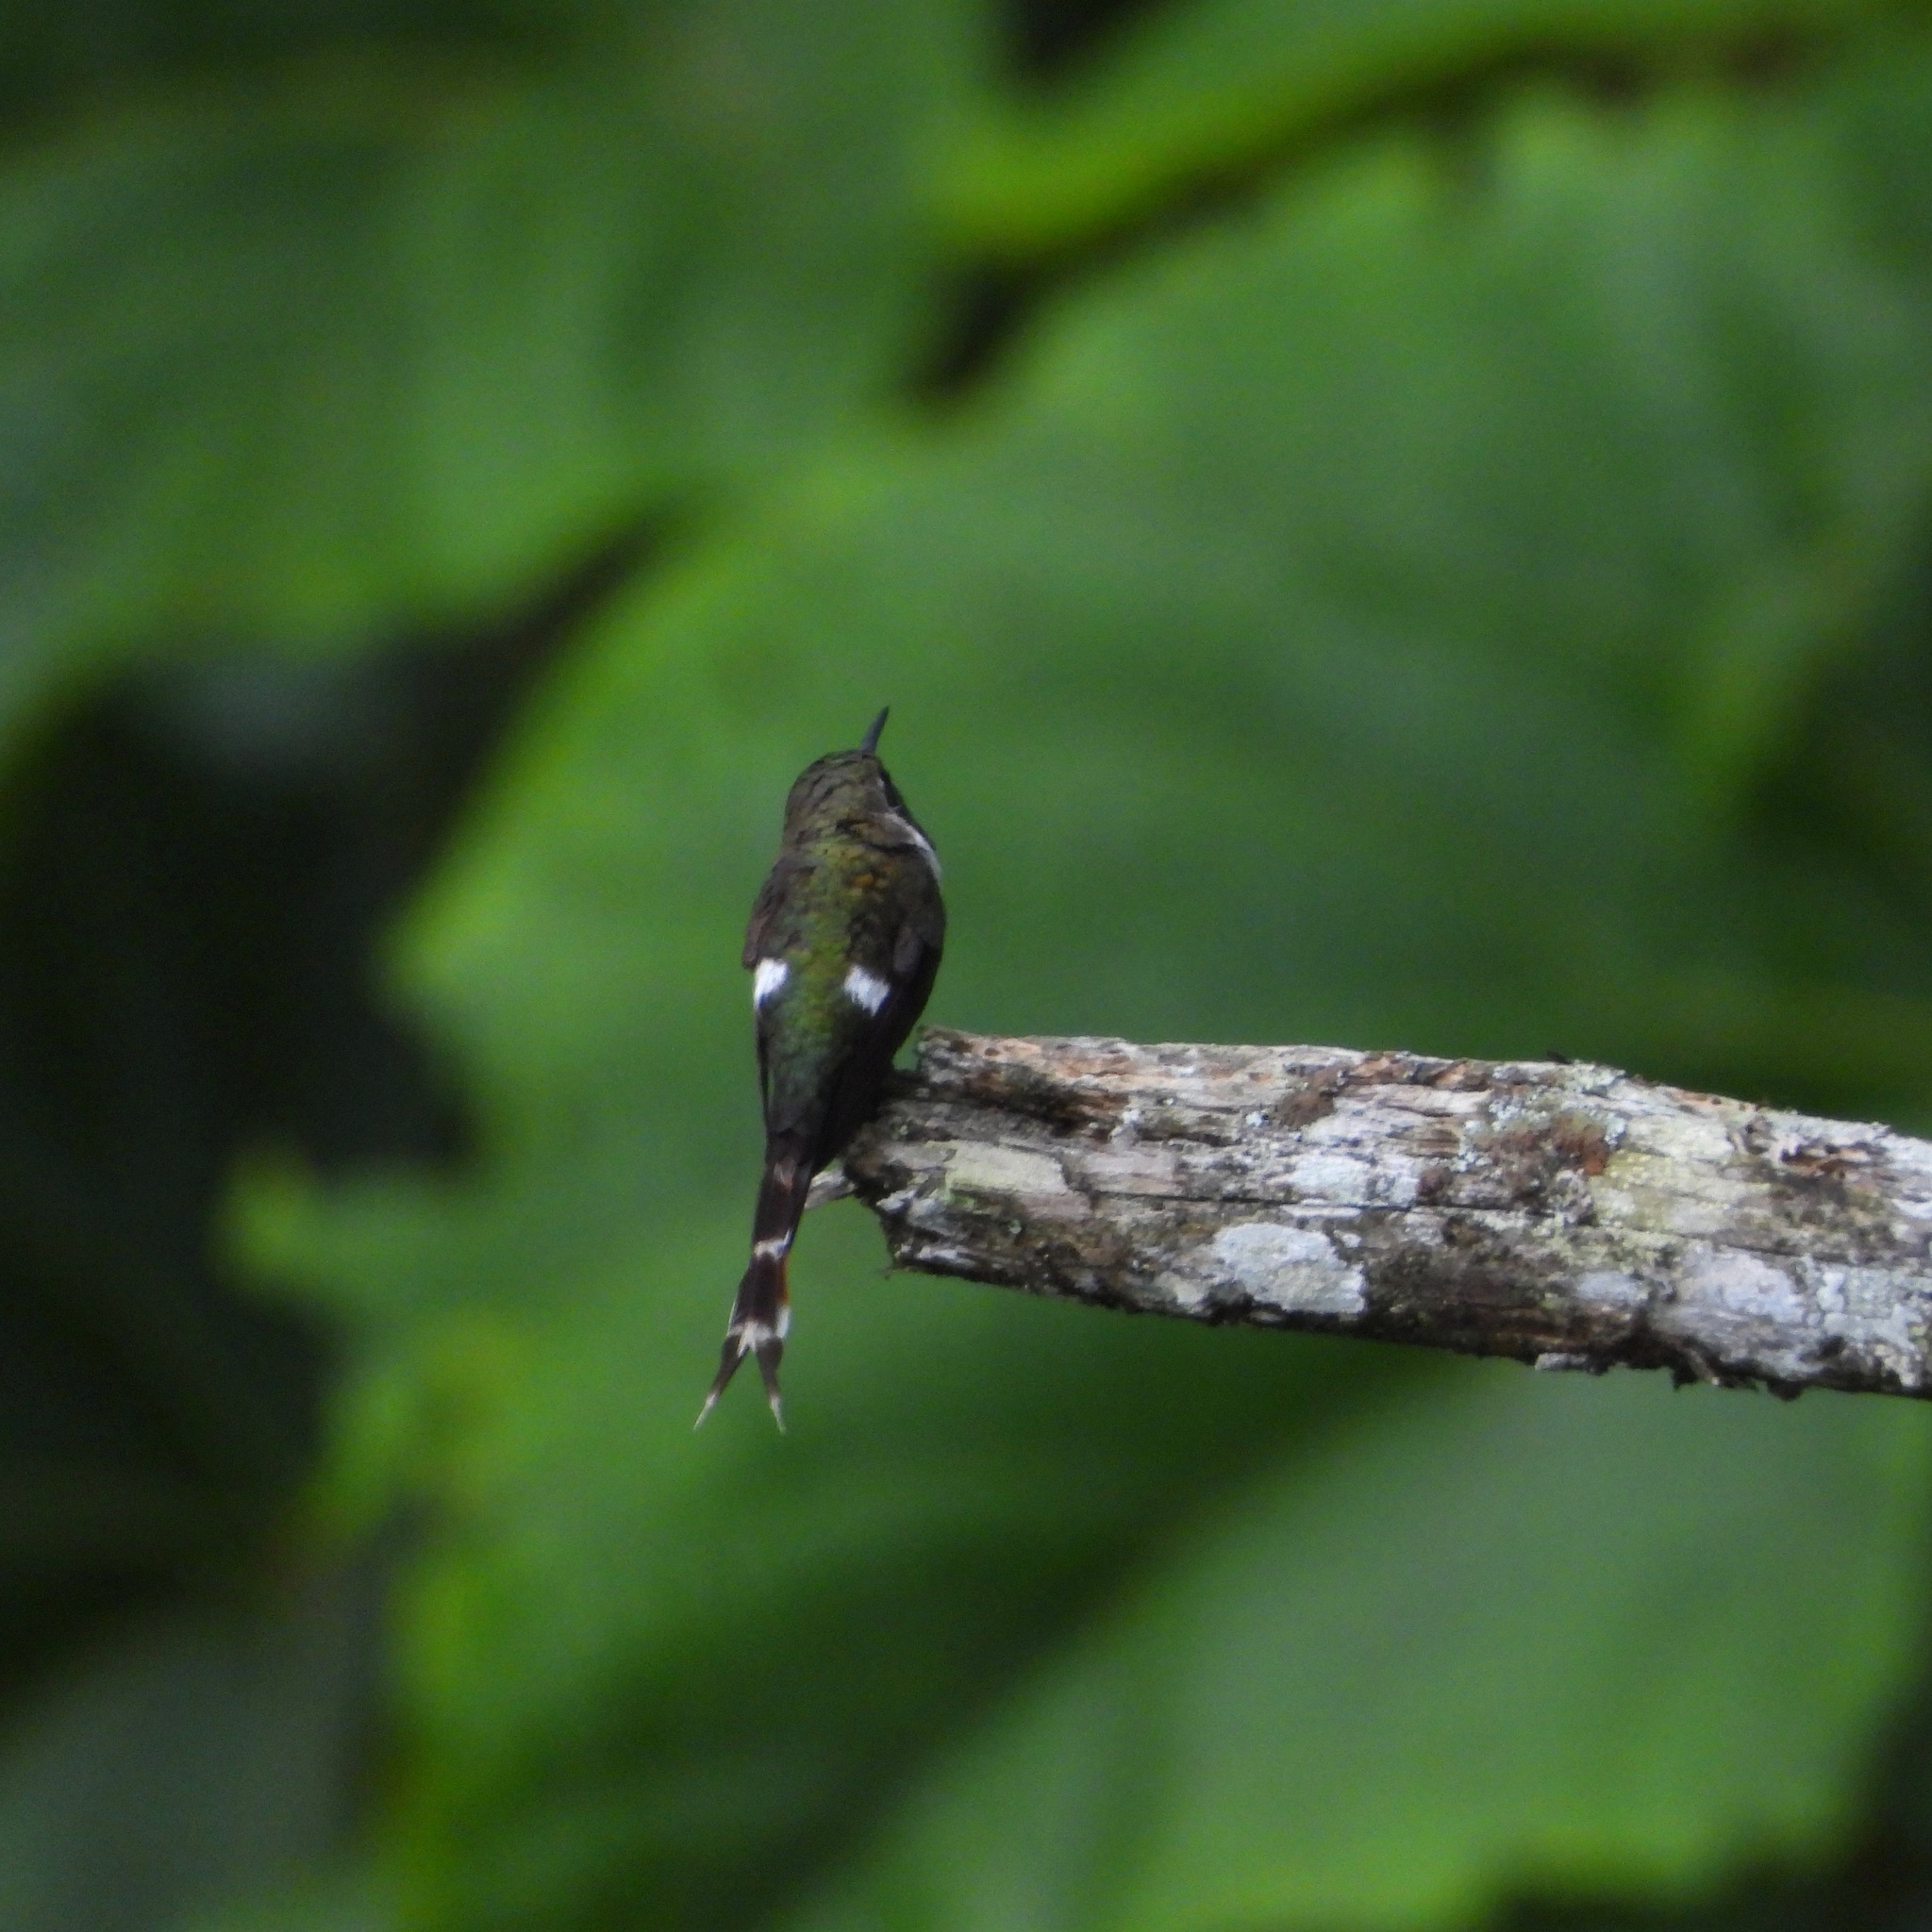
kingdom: Animalia
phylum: Chordata
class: Aves
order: Apodiformes
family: Trochilidae
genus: Tilmatura
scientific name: Tilmatura dupontii
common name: Sparkling-tailed woodstar
